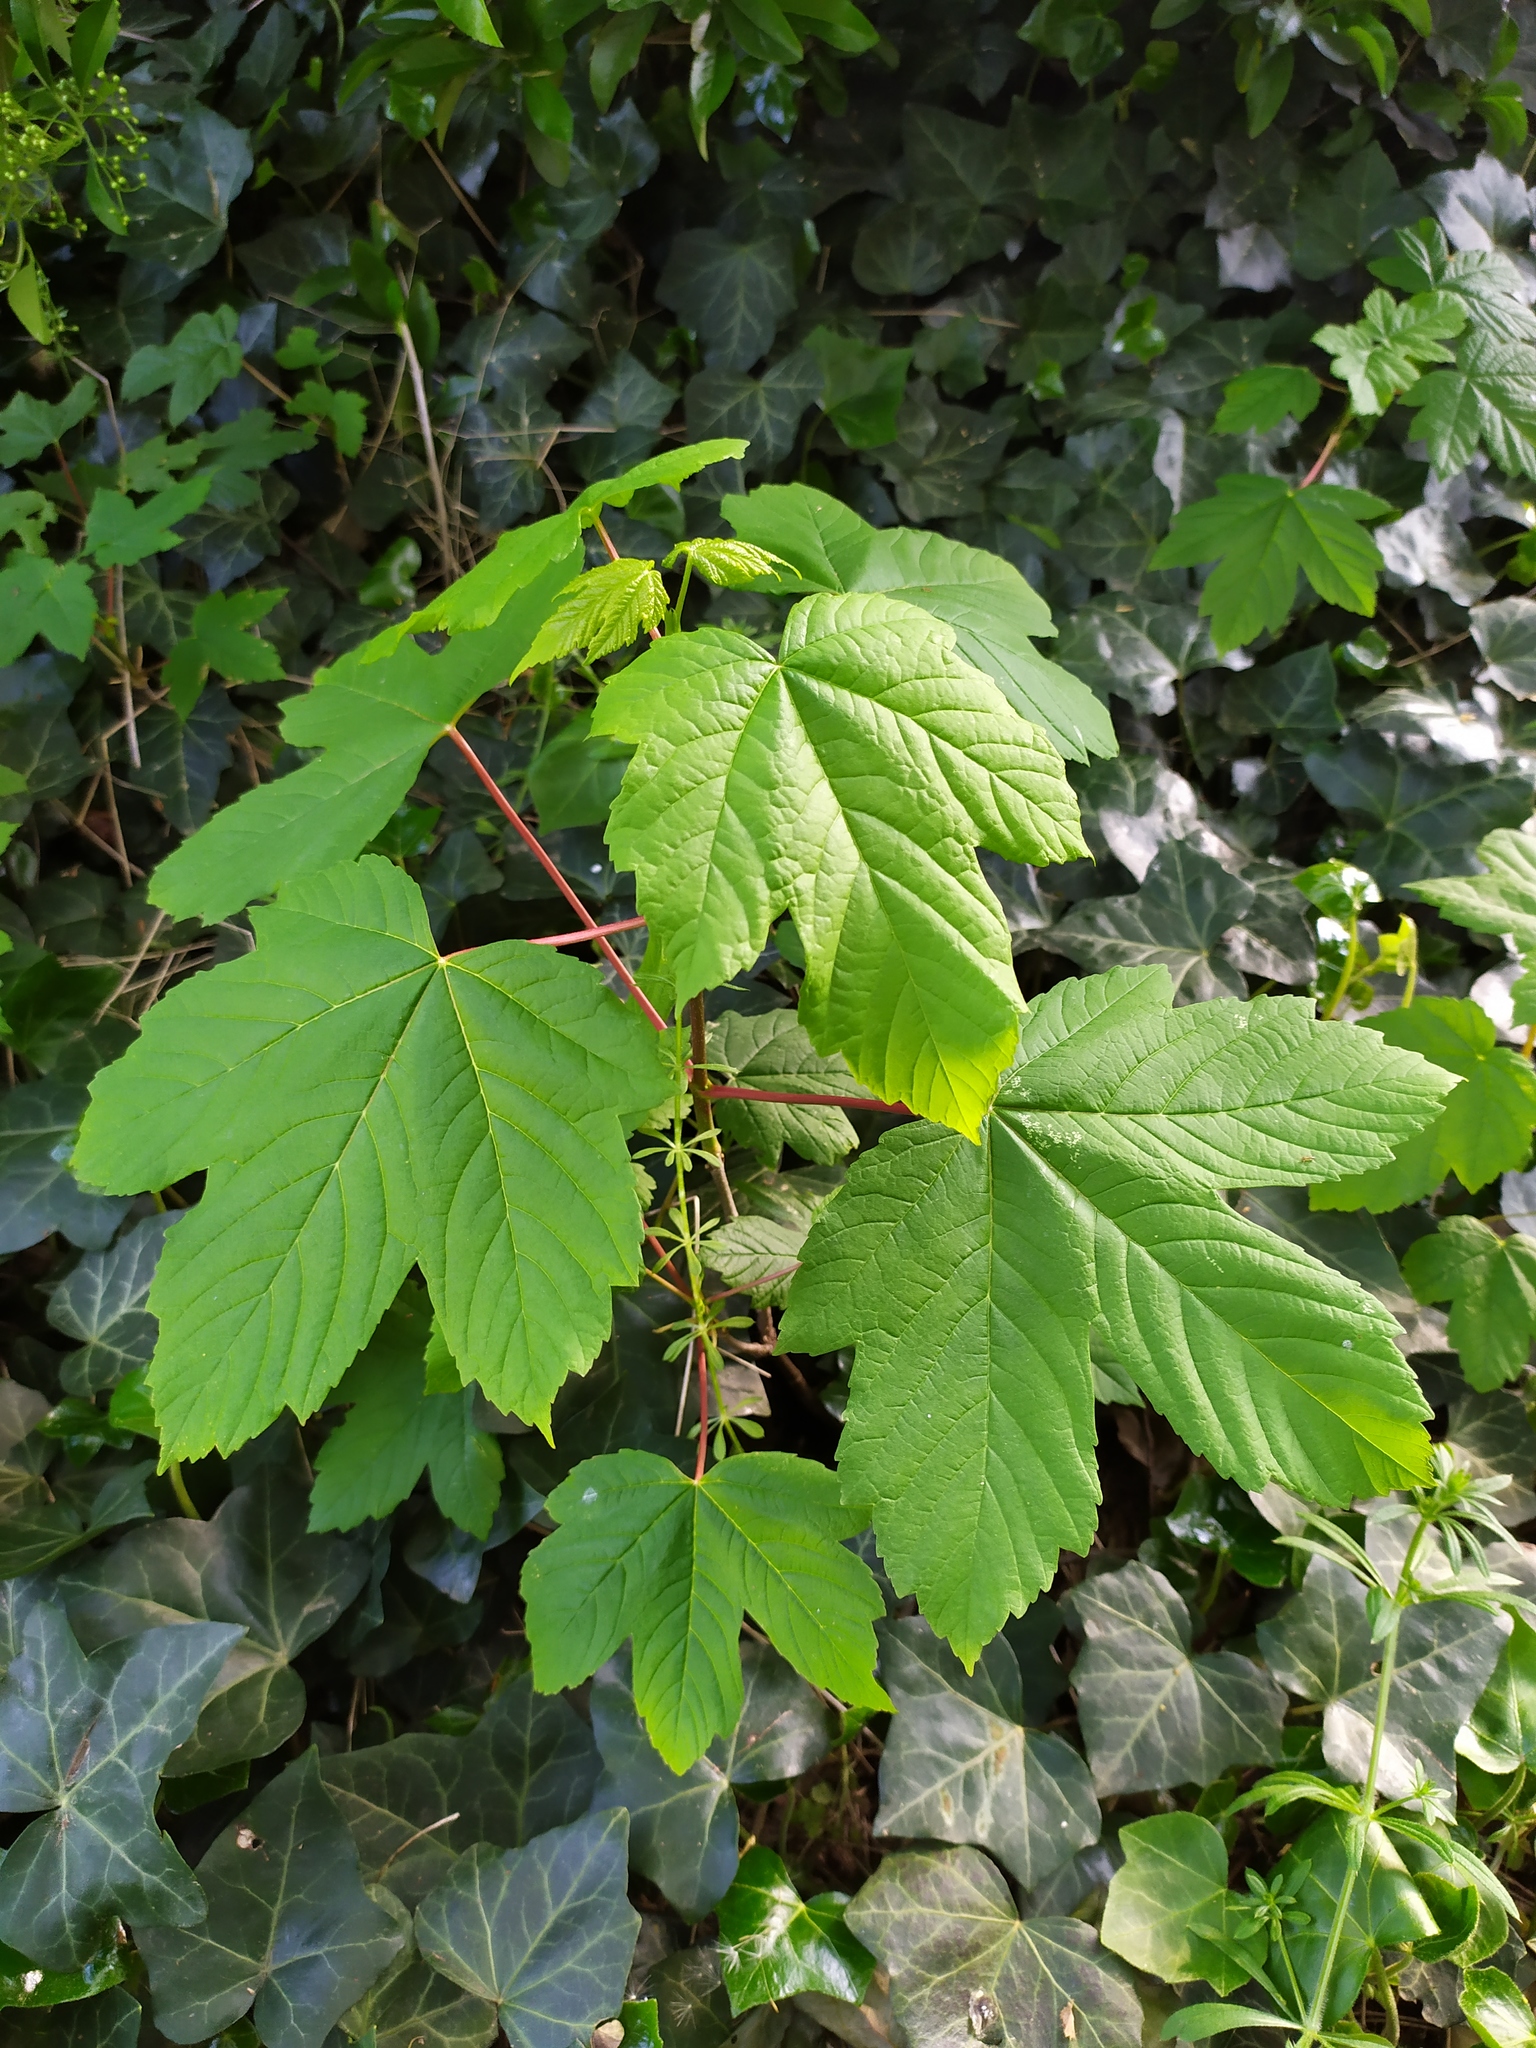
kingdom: Plantae
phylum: Tracheophyta
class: Magnoliopsida
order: Sapindales
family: Sapindaceae
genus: Acer
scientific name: Acer pseudoplatanus
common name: Sycamore
